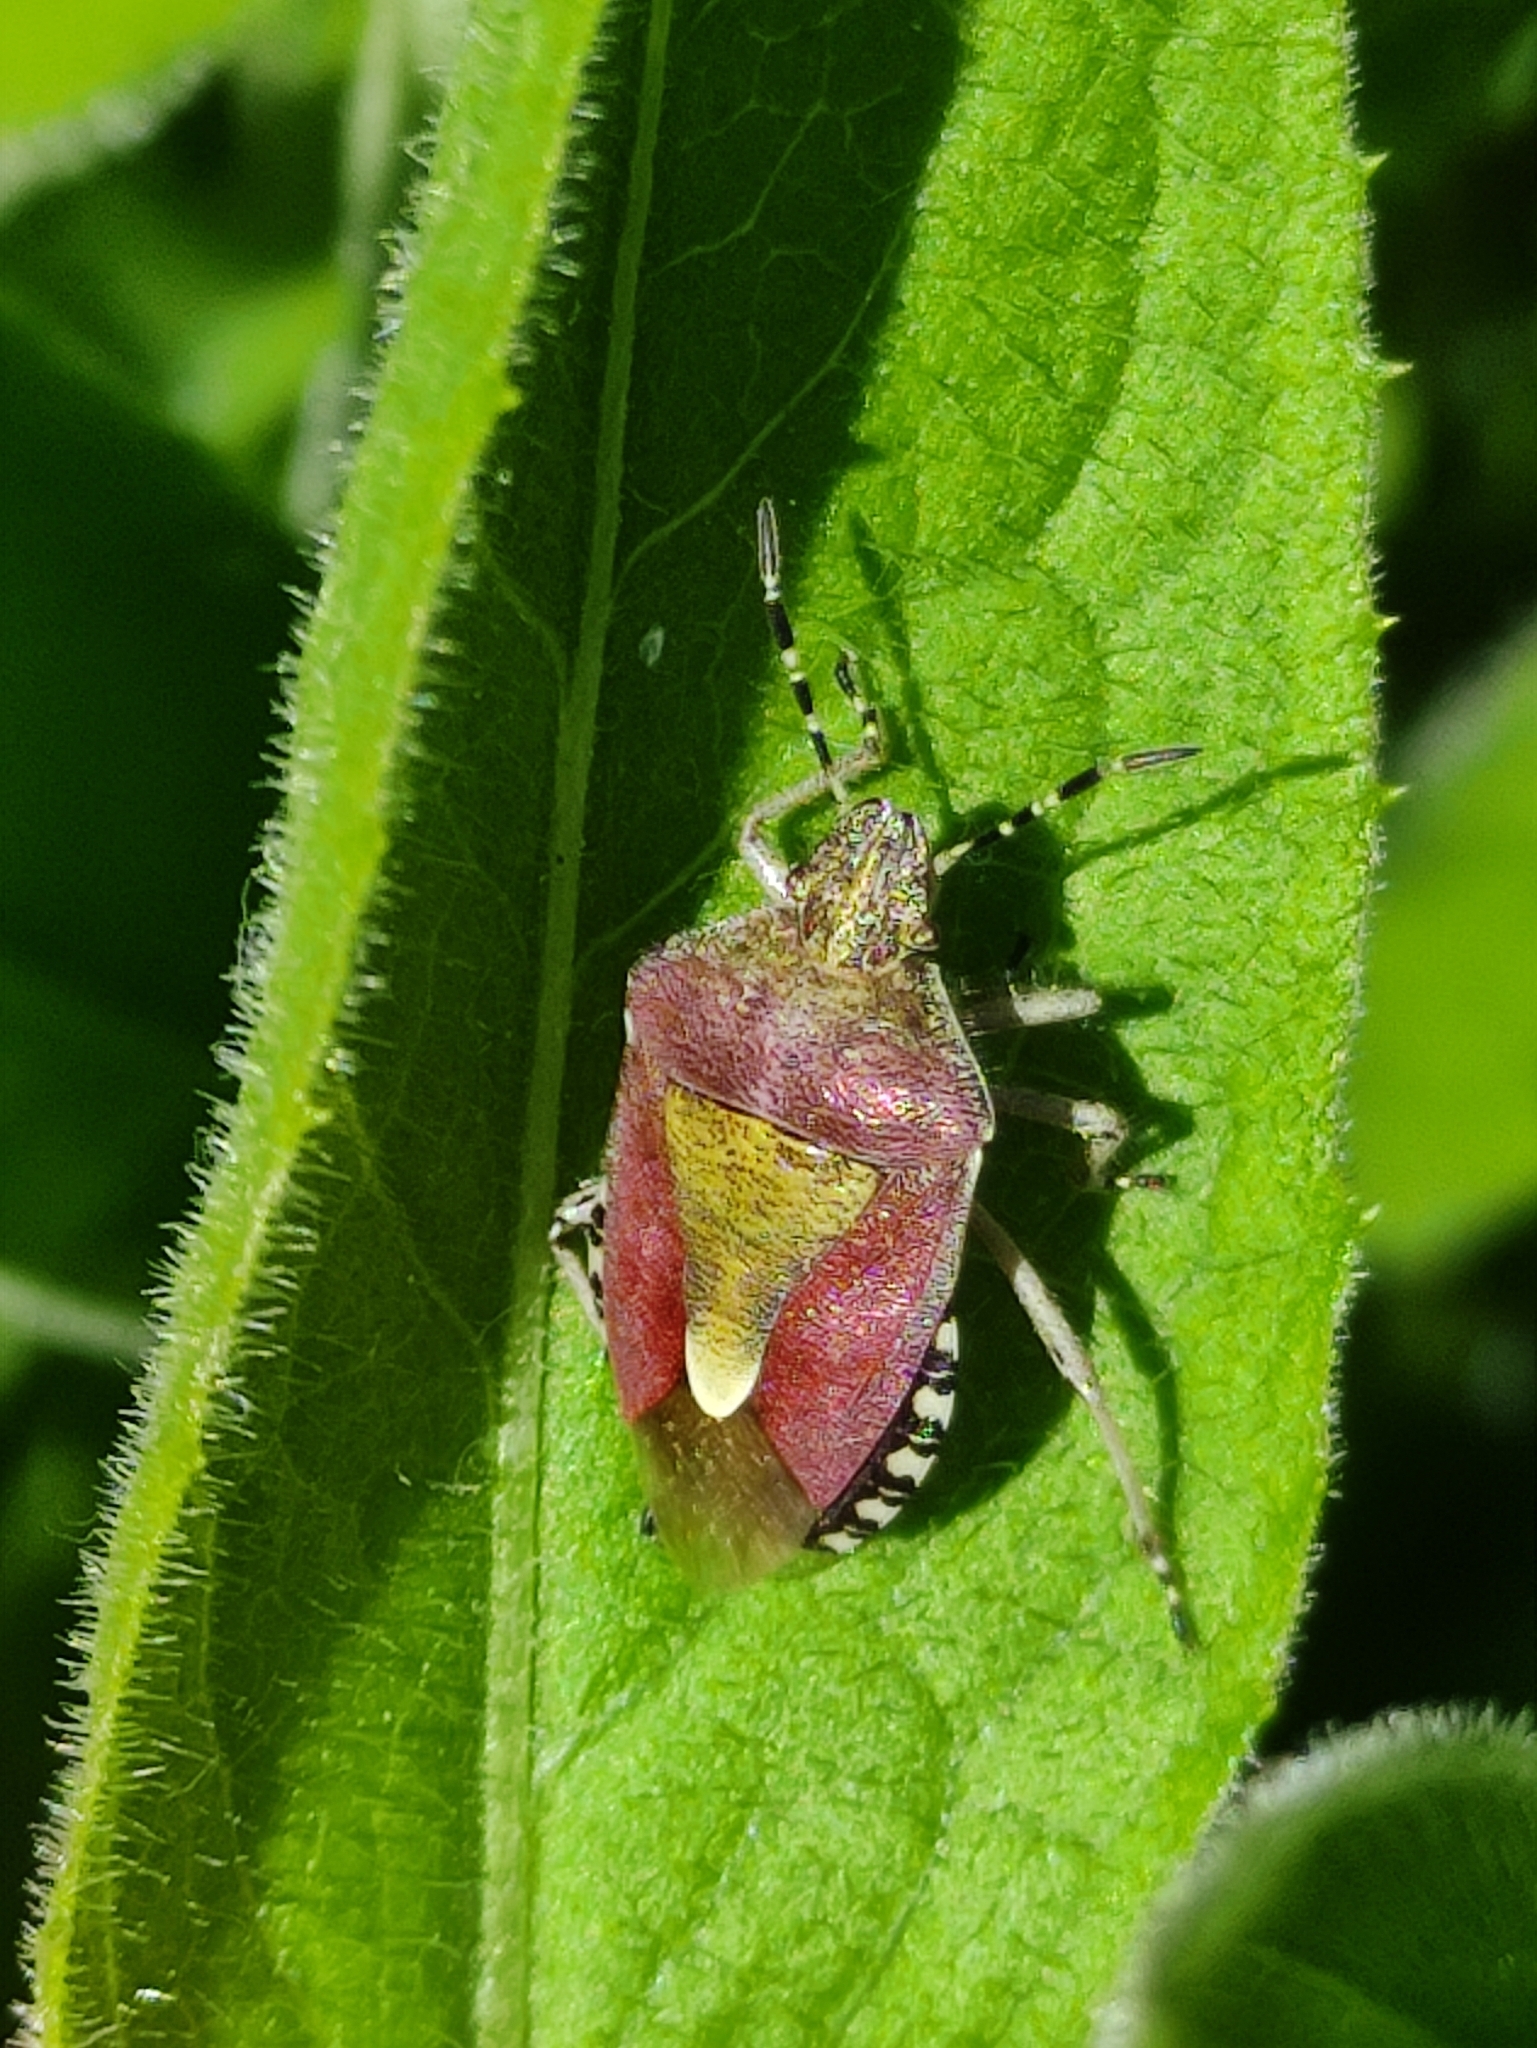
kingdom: Animalia
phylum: Arthropoda
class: Insecta
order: Hemiptera
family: Pentatomidae
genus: Dolycoris
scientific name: Dolycoris baccarum
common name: Sloe bug
